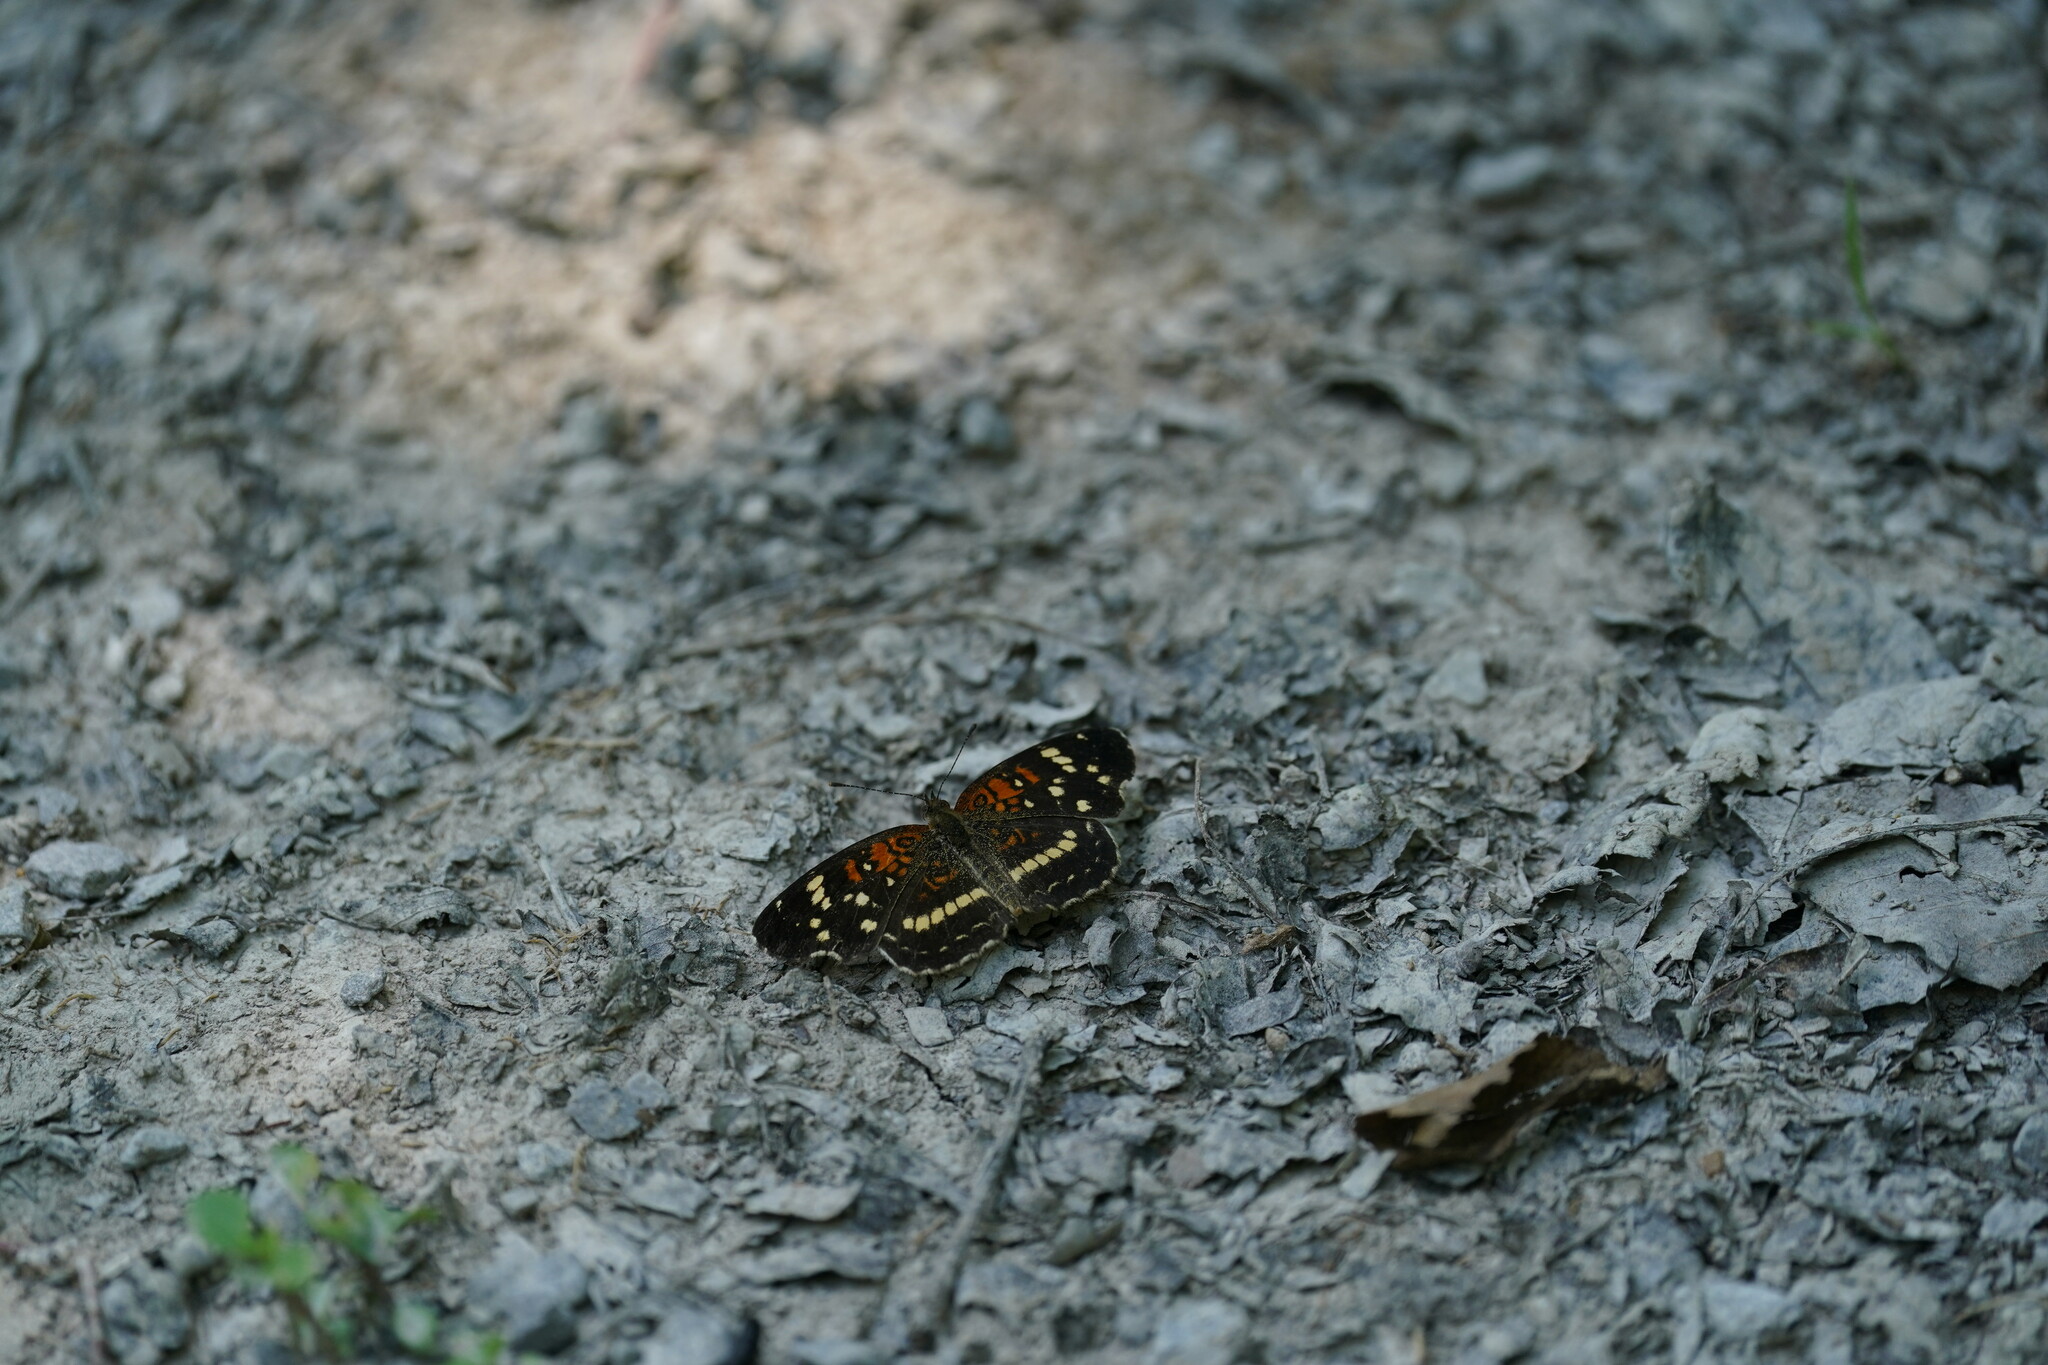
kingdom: Animalia
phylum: Arthropoda
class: Insecta
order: Lepidoptera
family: Nymphalidae
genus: Anthanassa
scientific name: Anthanassa taxana
